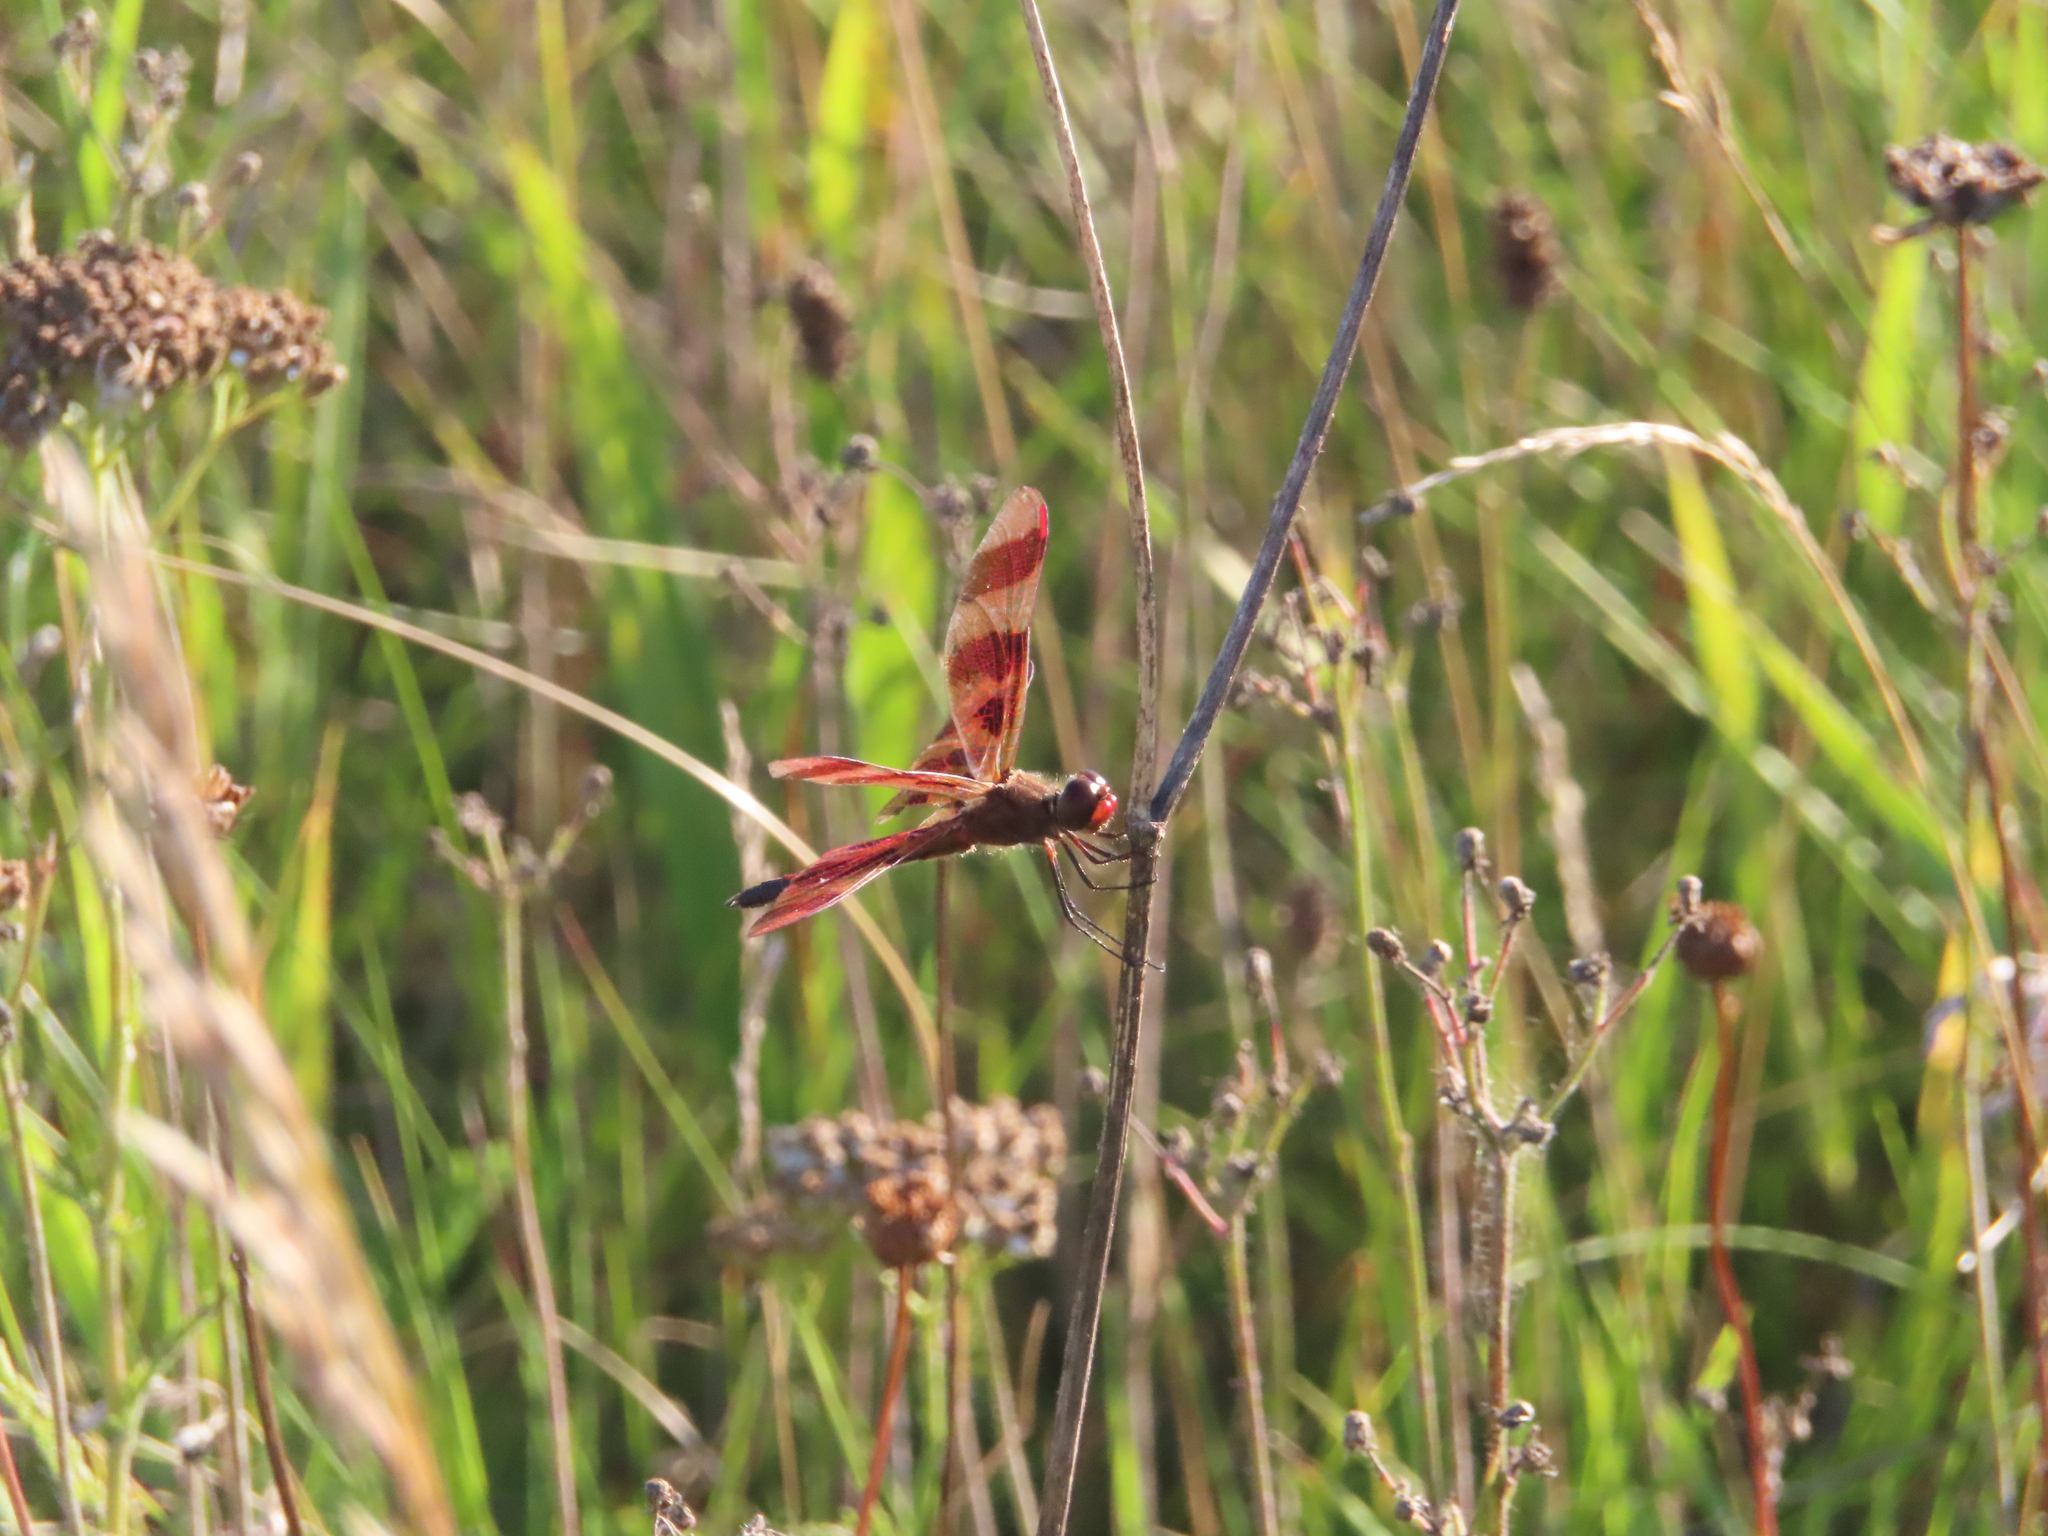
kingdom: Animalia
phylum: Arthropoda
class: Insecta
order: Odonata
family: Libellulidae
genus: Celithemis
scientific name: Celithemis eponina
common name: Halloween pennant
